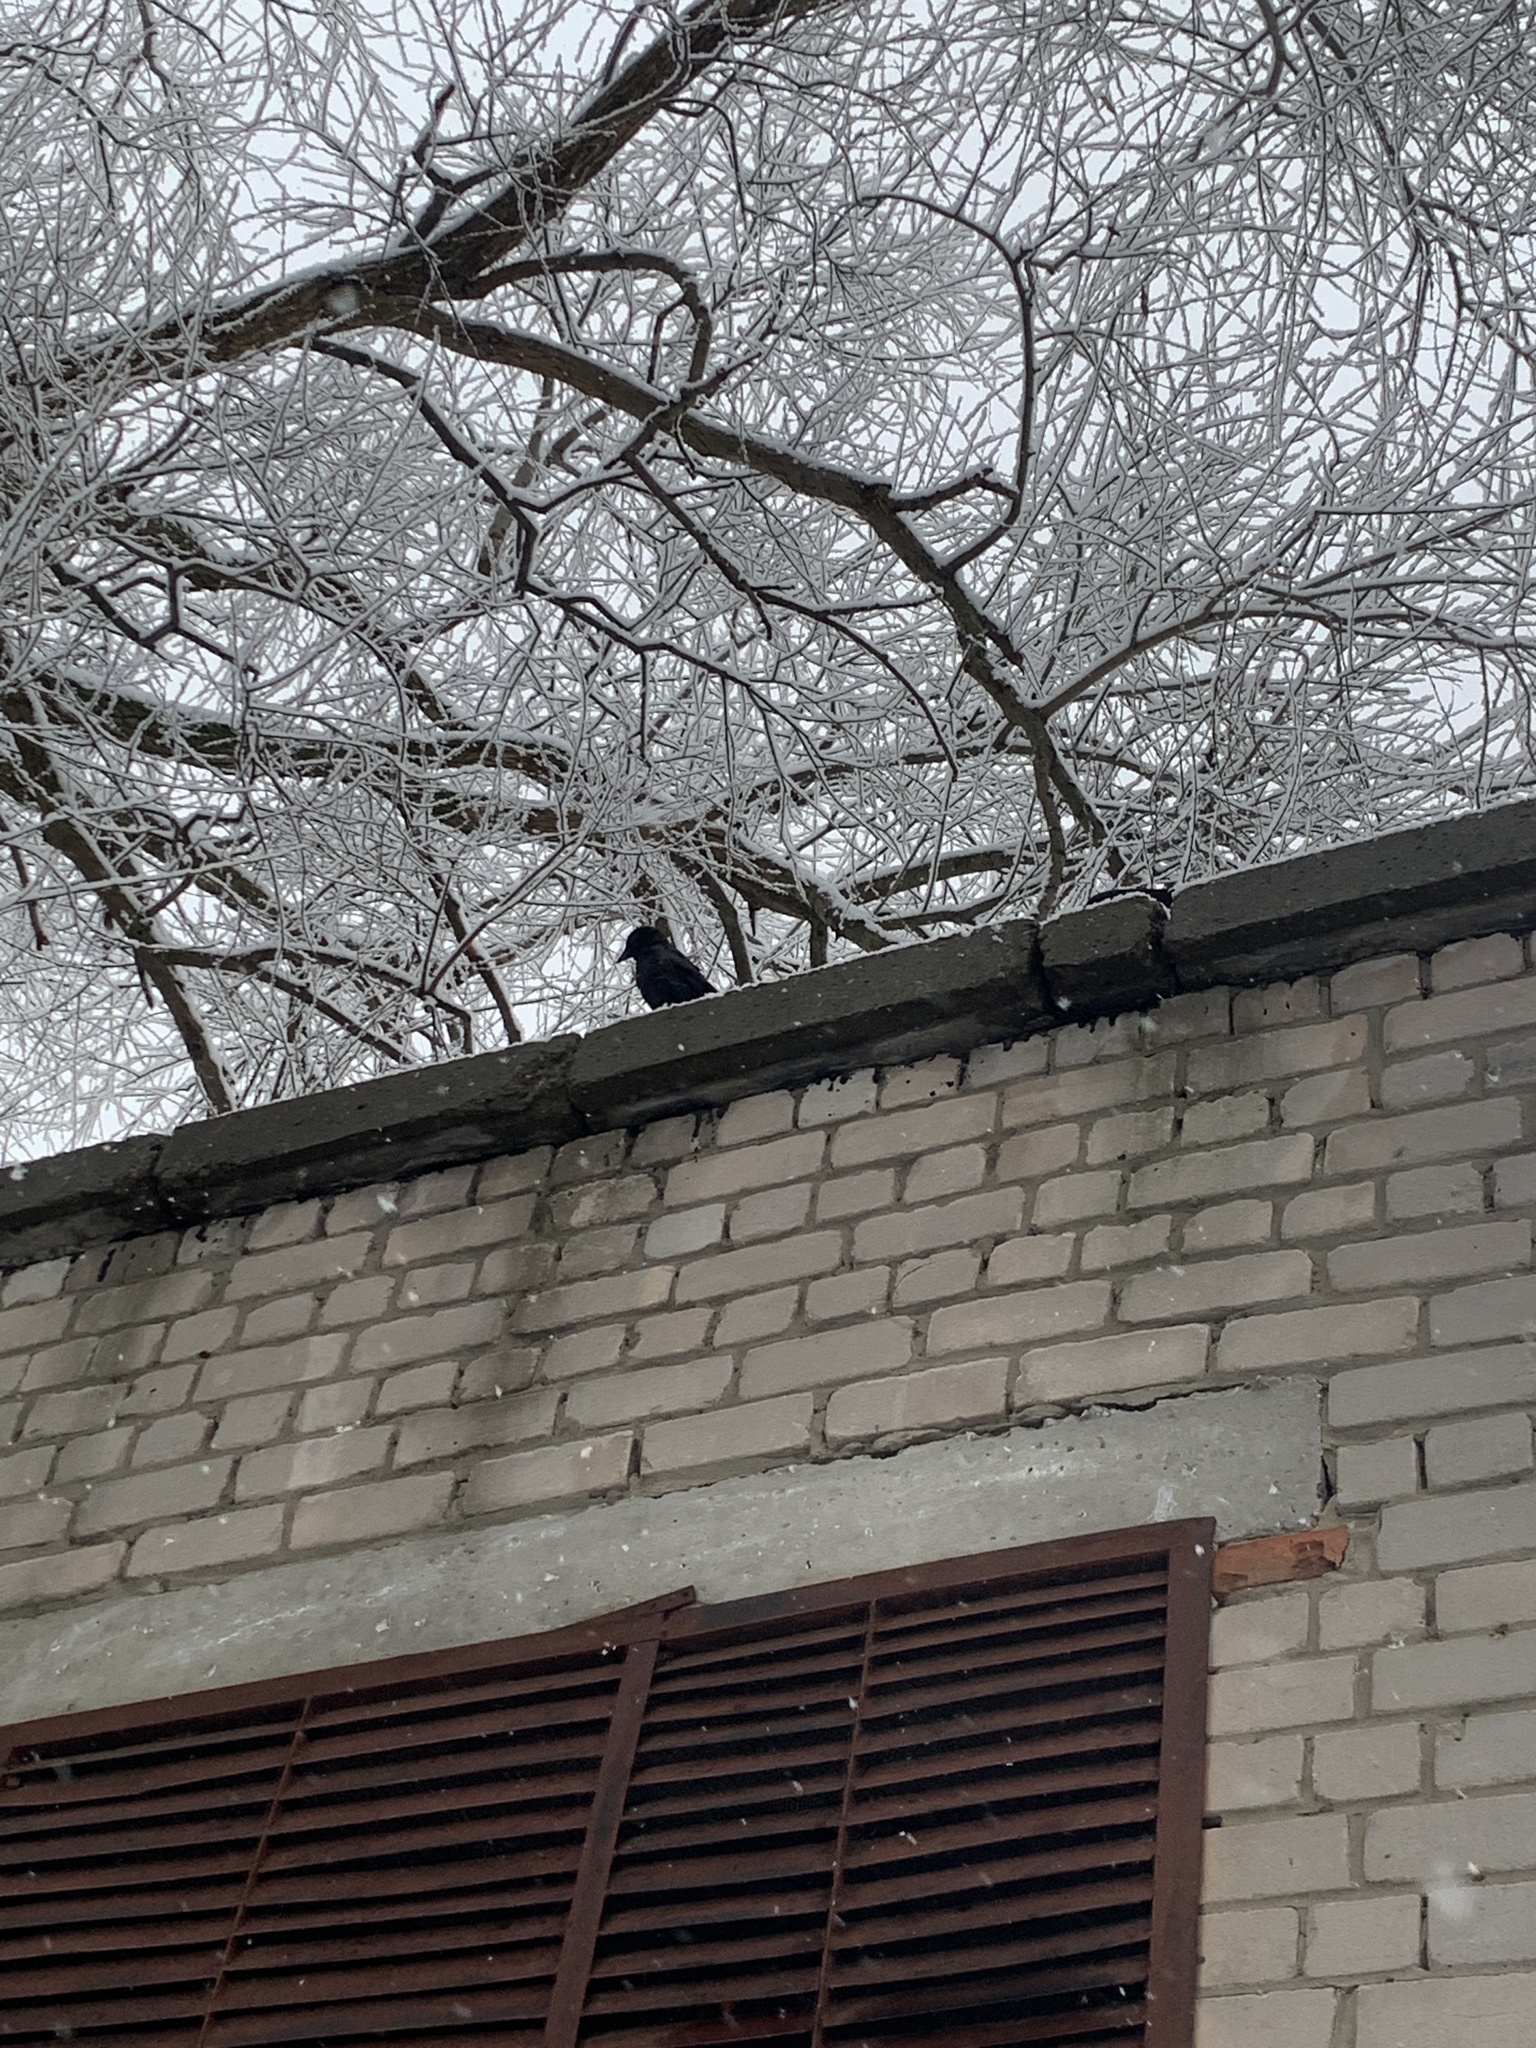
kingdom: Animalia
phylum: Chordata
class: Aves
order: Passeriformes
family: Corvidae
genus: Coloeus
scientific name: Coloeus monedula
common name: Western jackdaw
